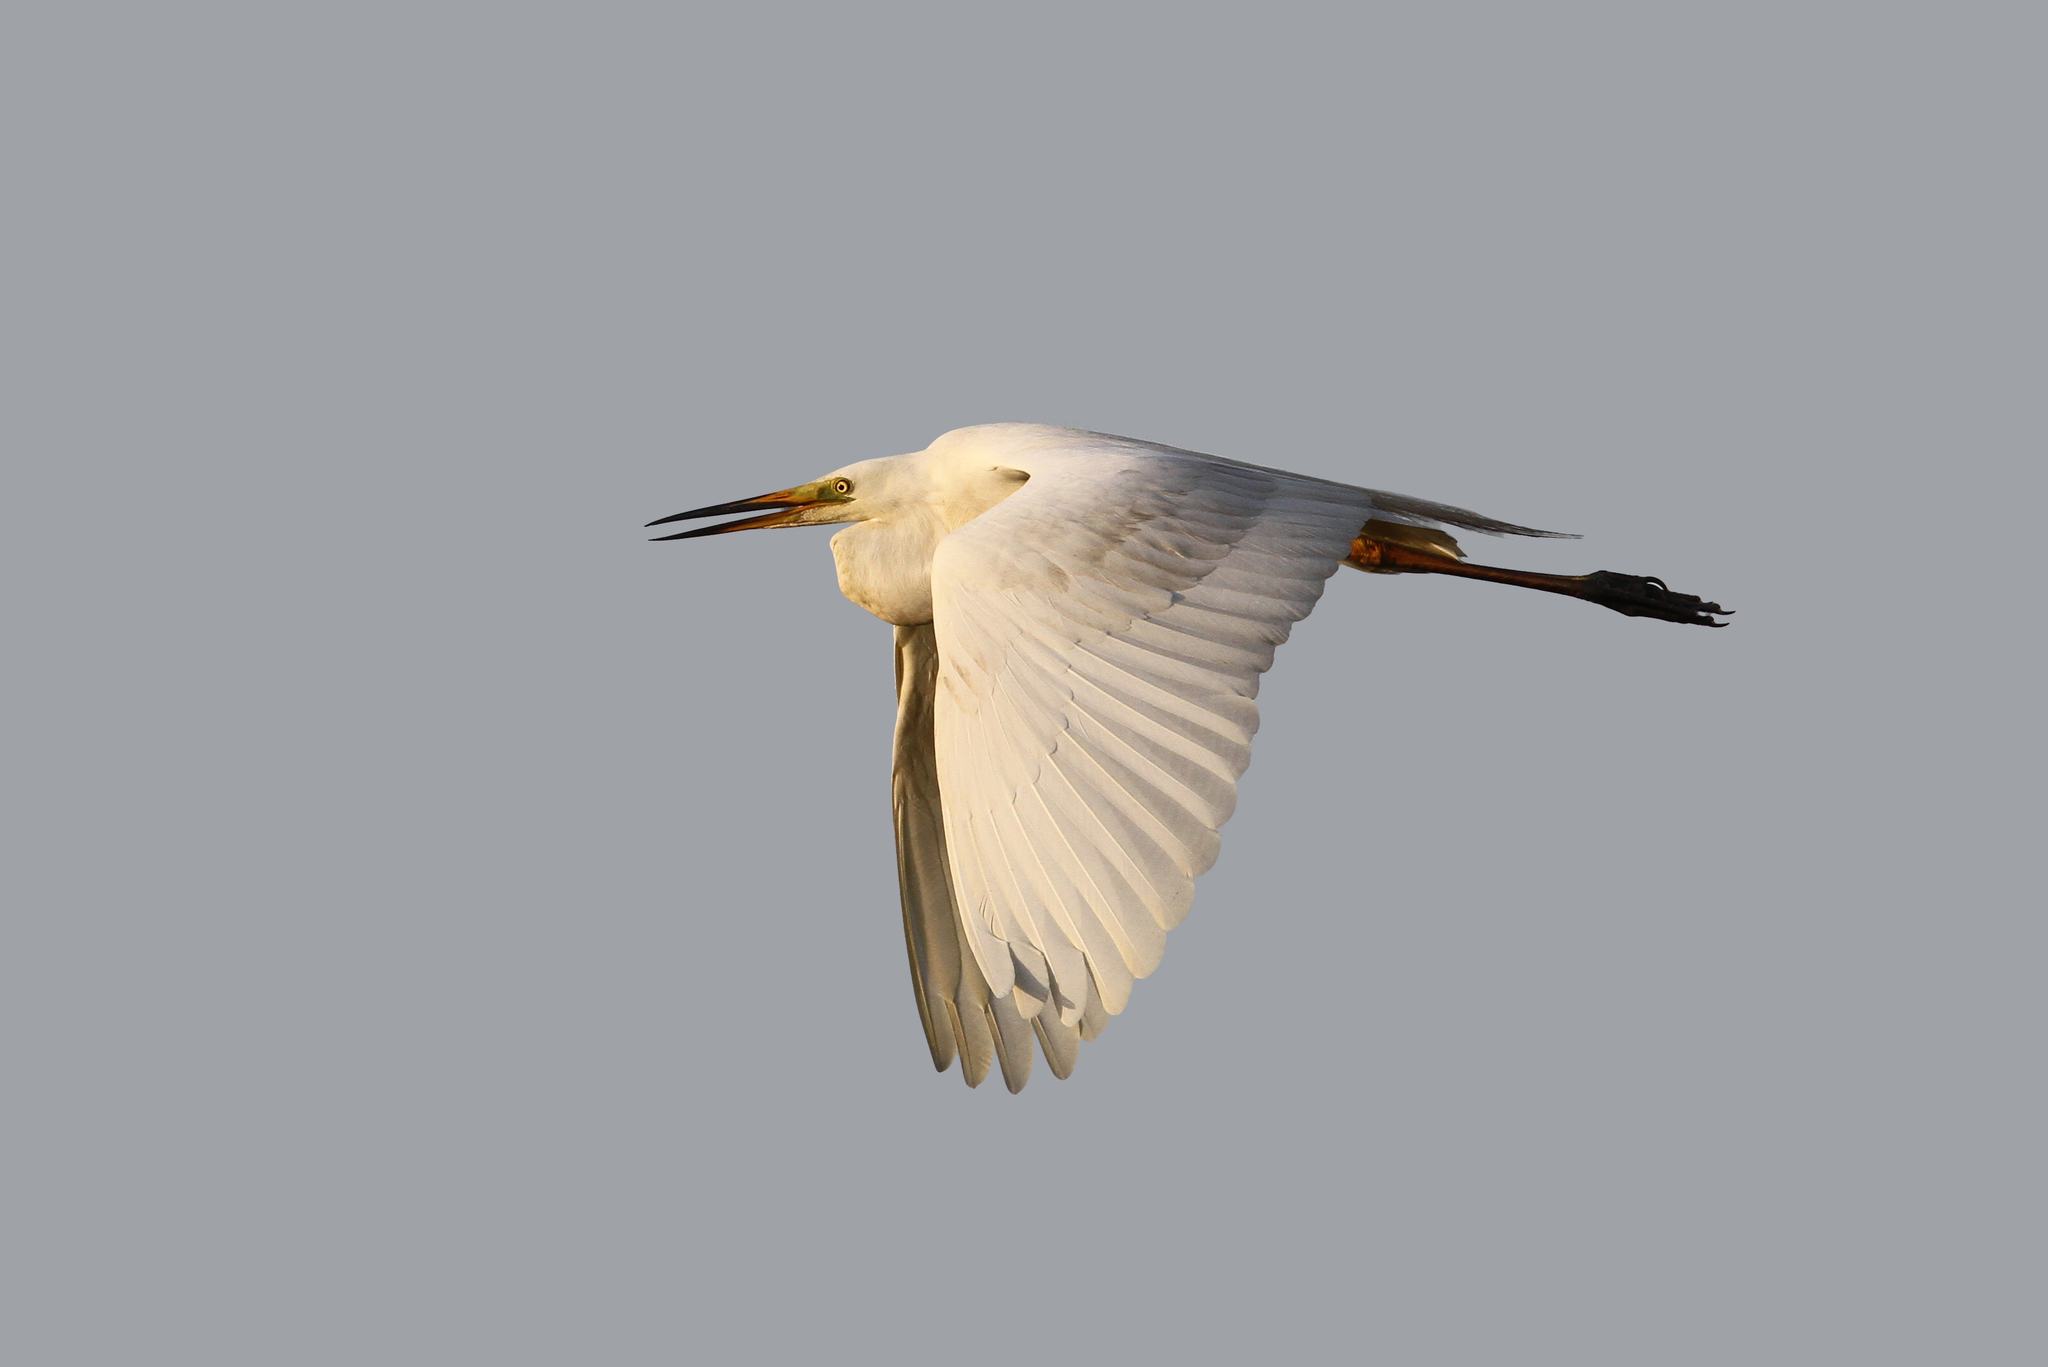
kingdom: Animalia
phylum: Chordata
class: Aves
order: Pelecaniformes
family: Ardeidae
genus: Ardea
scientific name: Ardea alba
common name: Great egret
